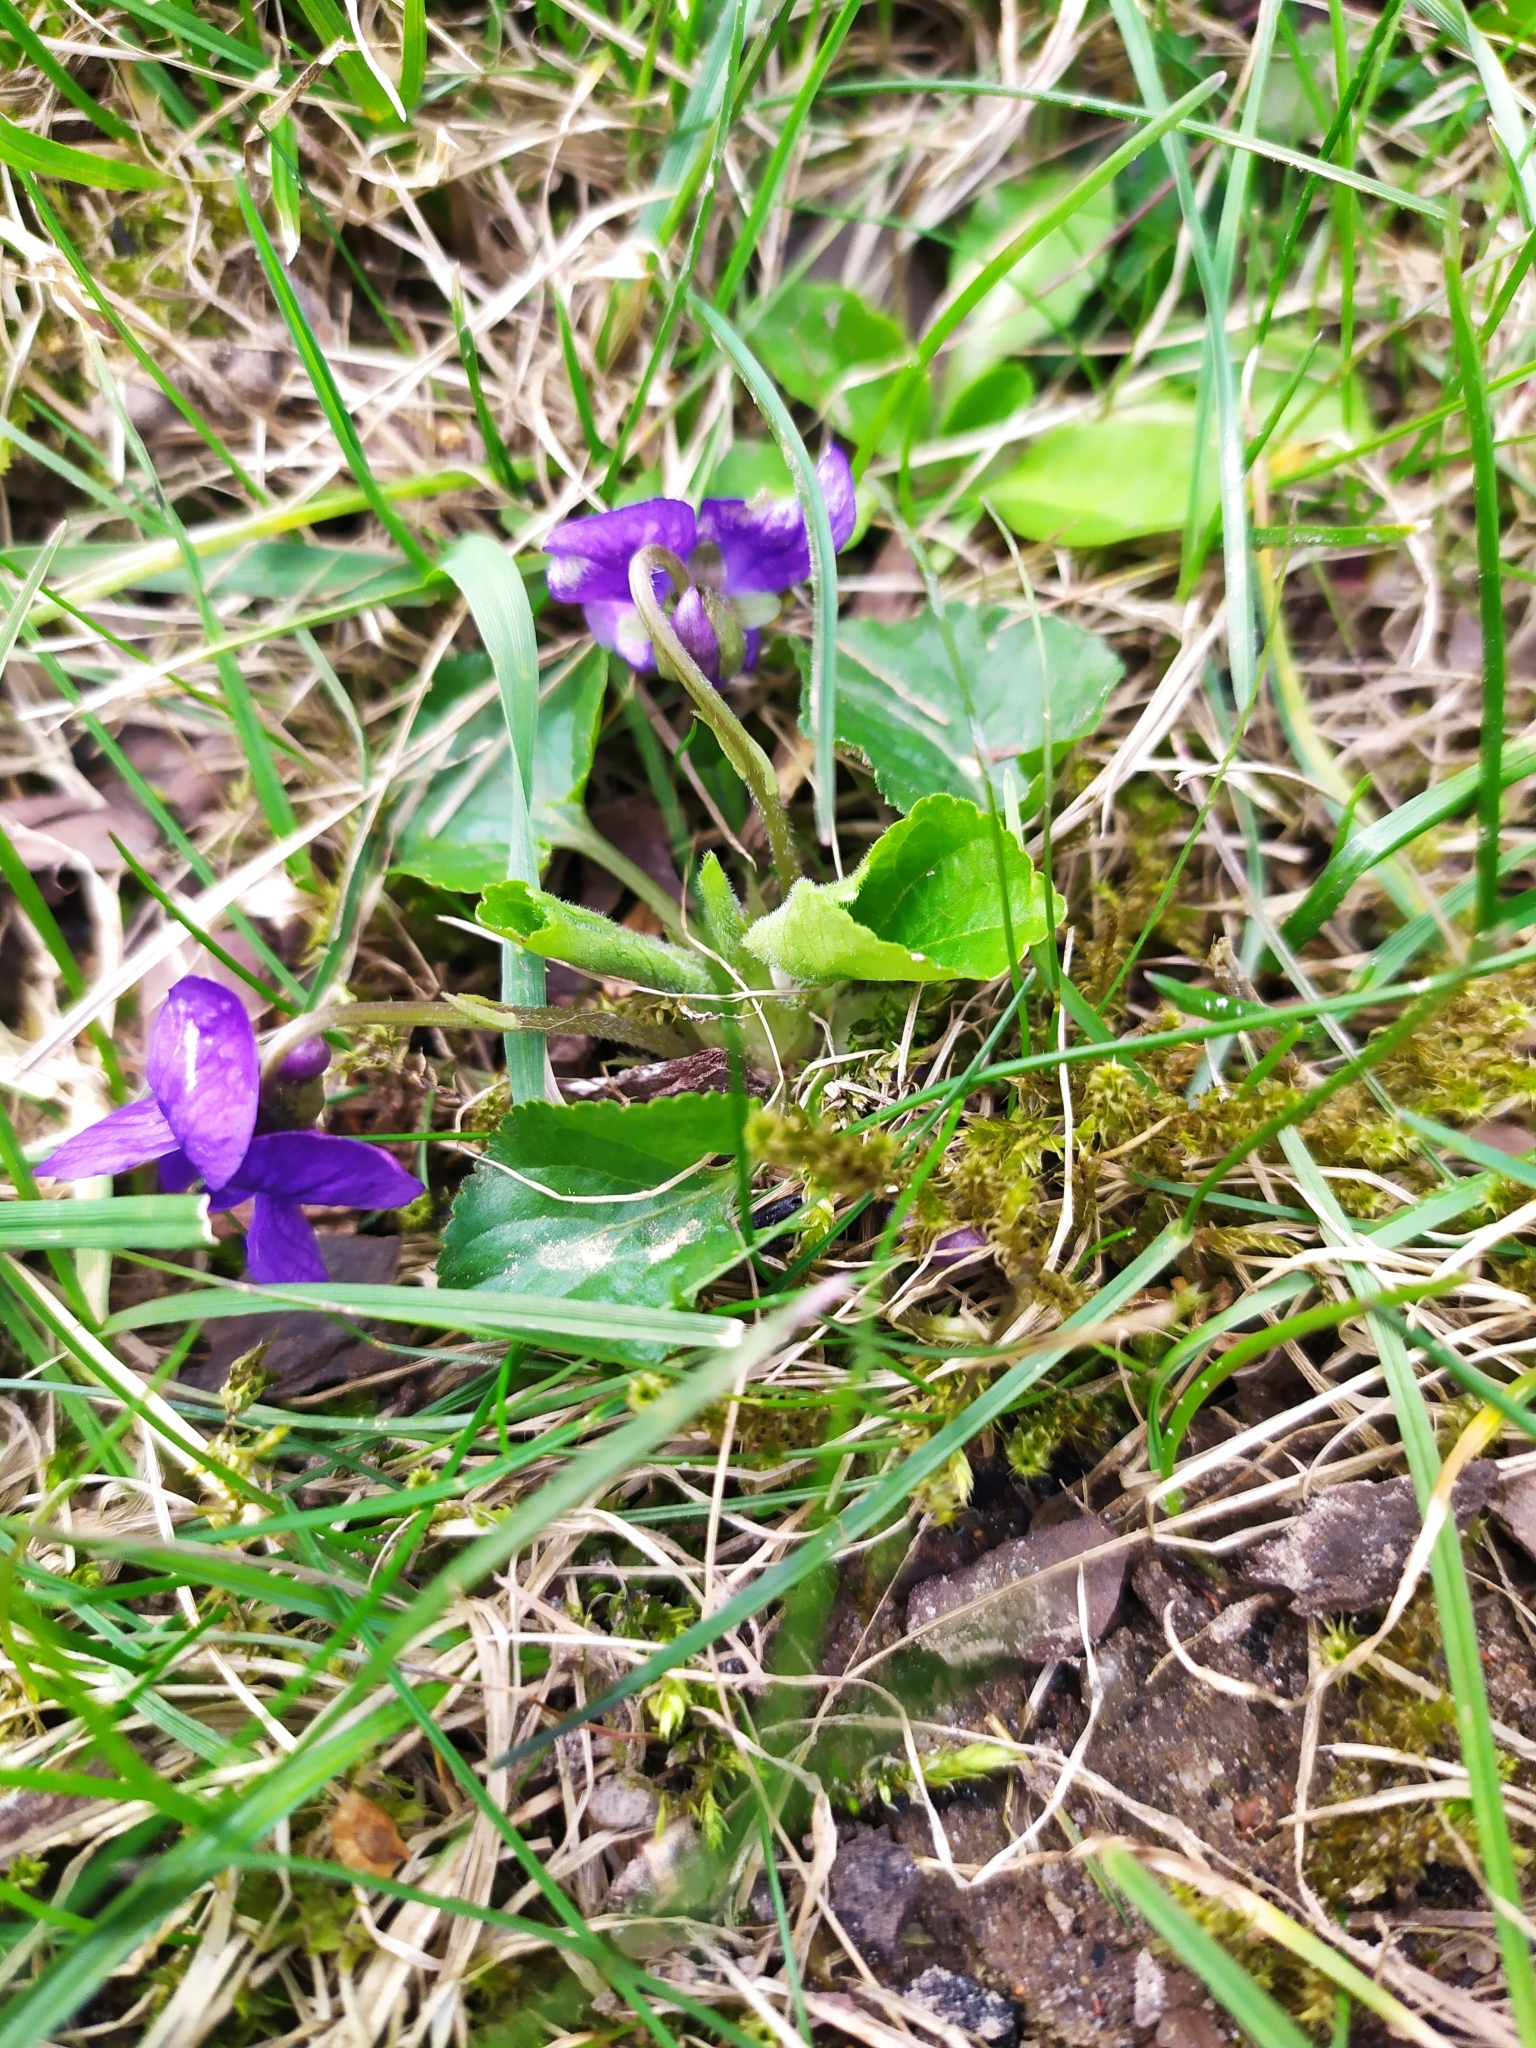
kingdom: Plantae
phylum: Tracheophyta
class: Magnoliopsida
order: Malpighiales
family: Violaceae
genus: Viola
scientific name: Viola odorata
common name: Sweet violet
